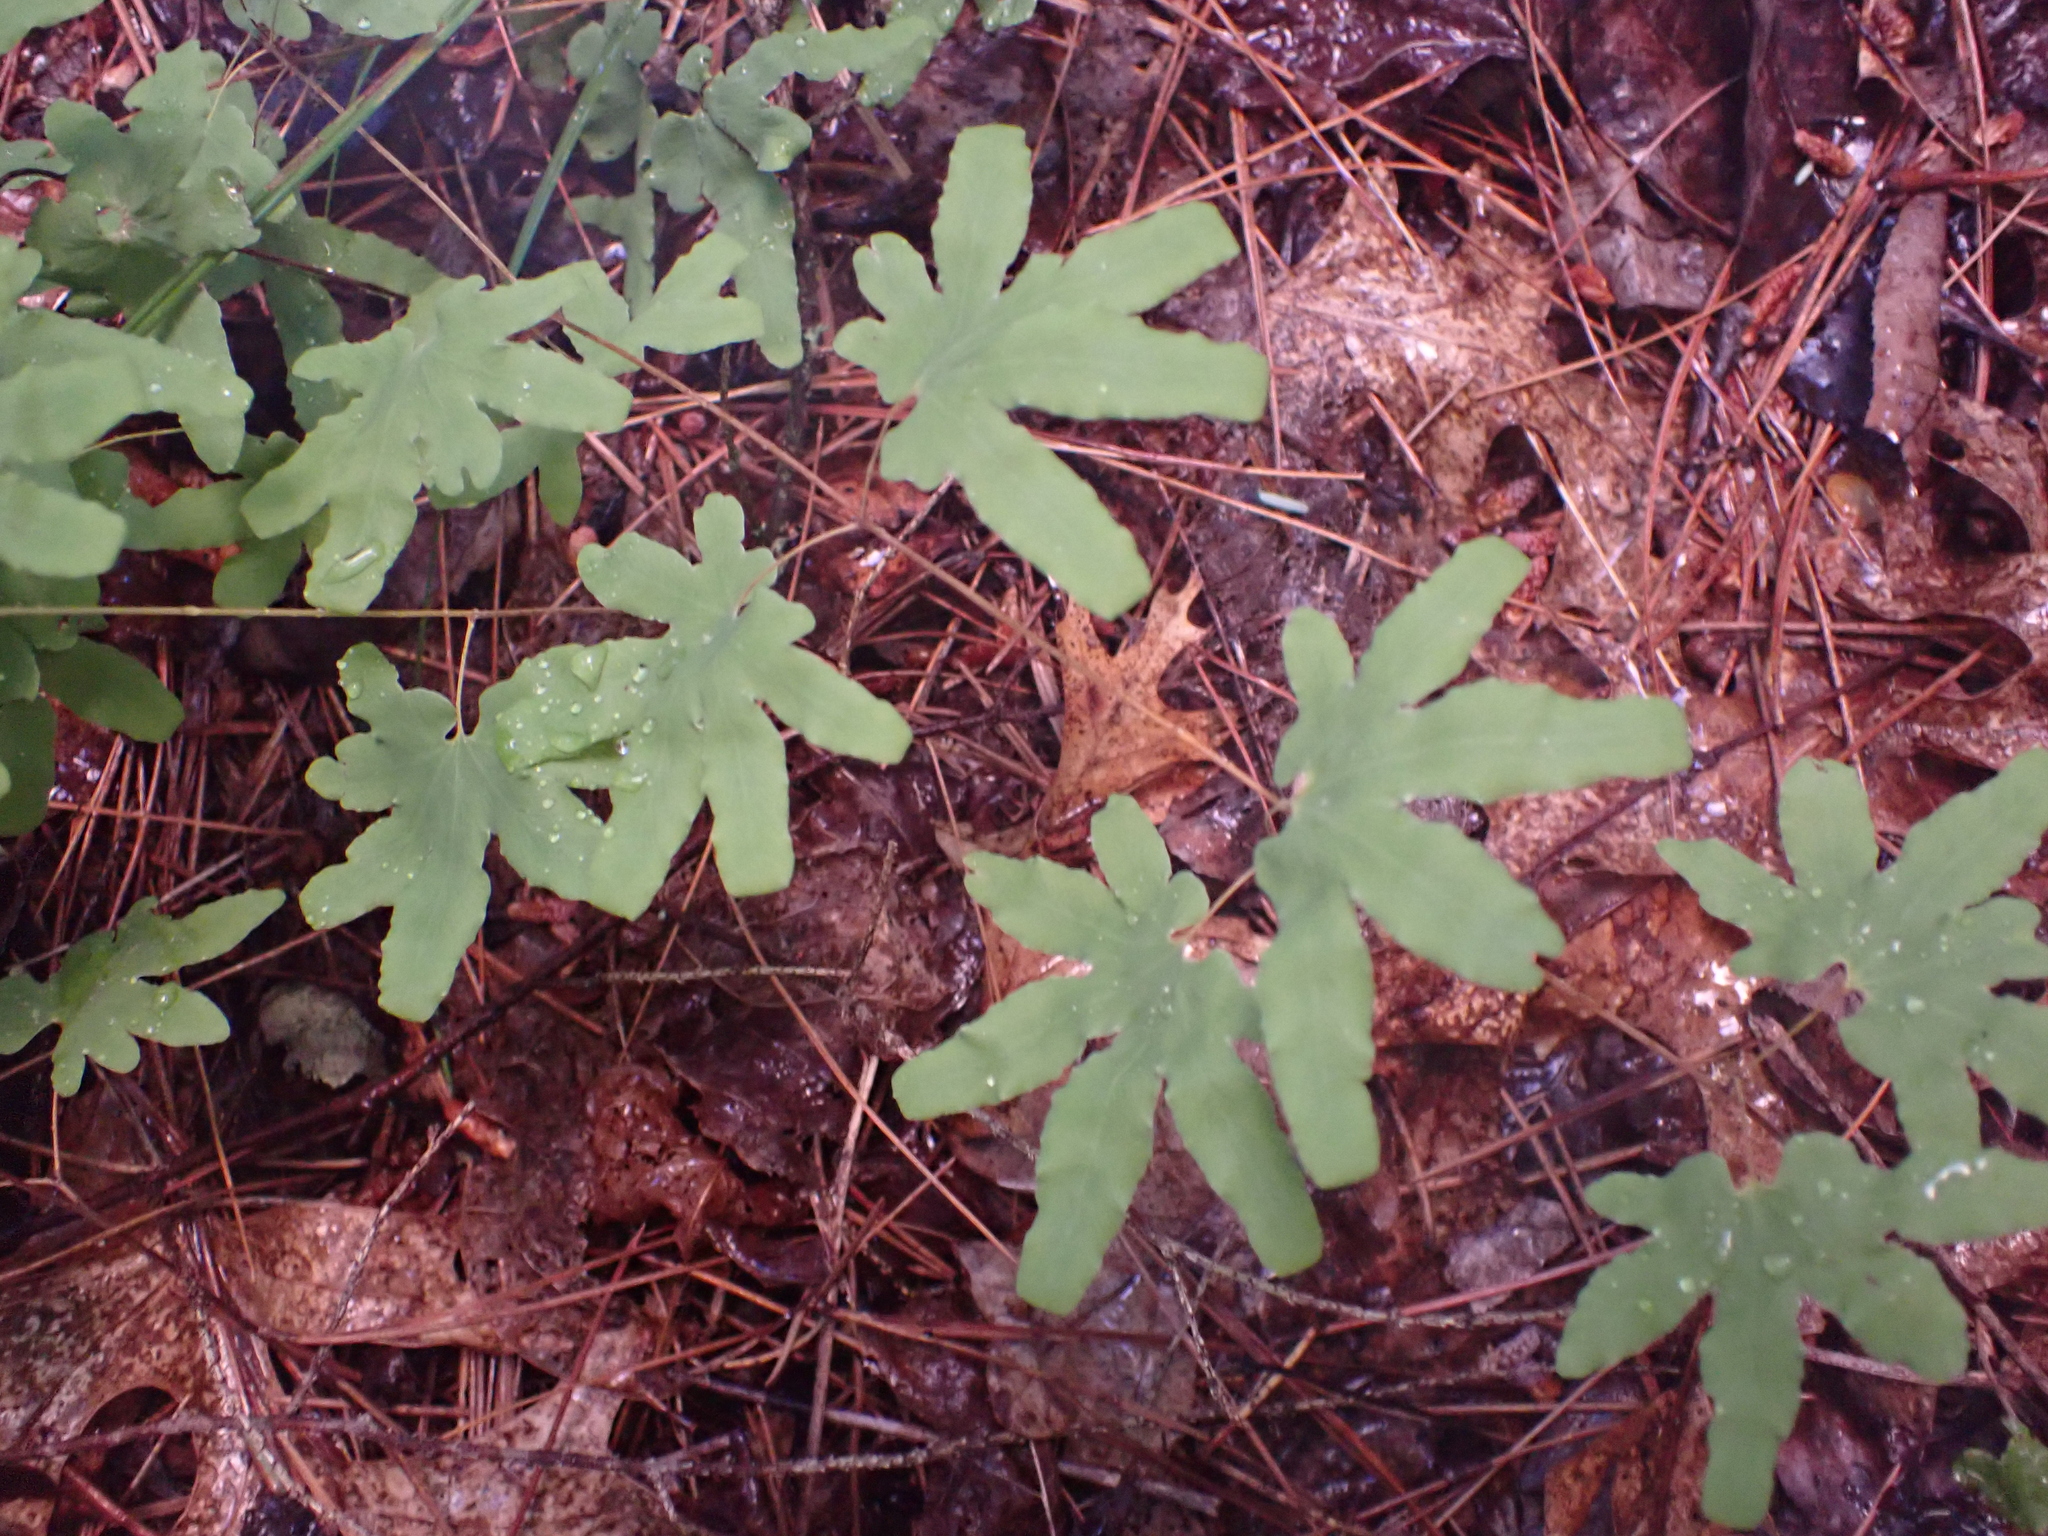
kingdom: Plantae
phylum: Tracheophyta
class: Polypodiopsida
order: Schizaeales
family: Lygodiaceae
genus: Lygodium
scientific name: Lygodium palmatum
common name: American climbing fern
